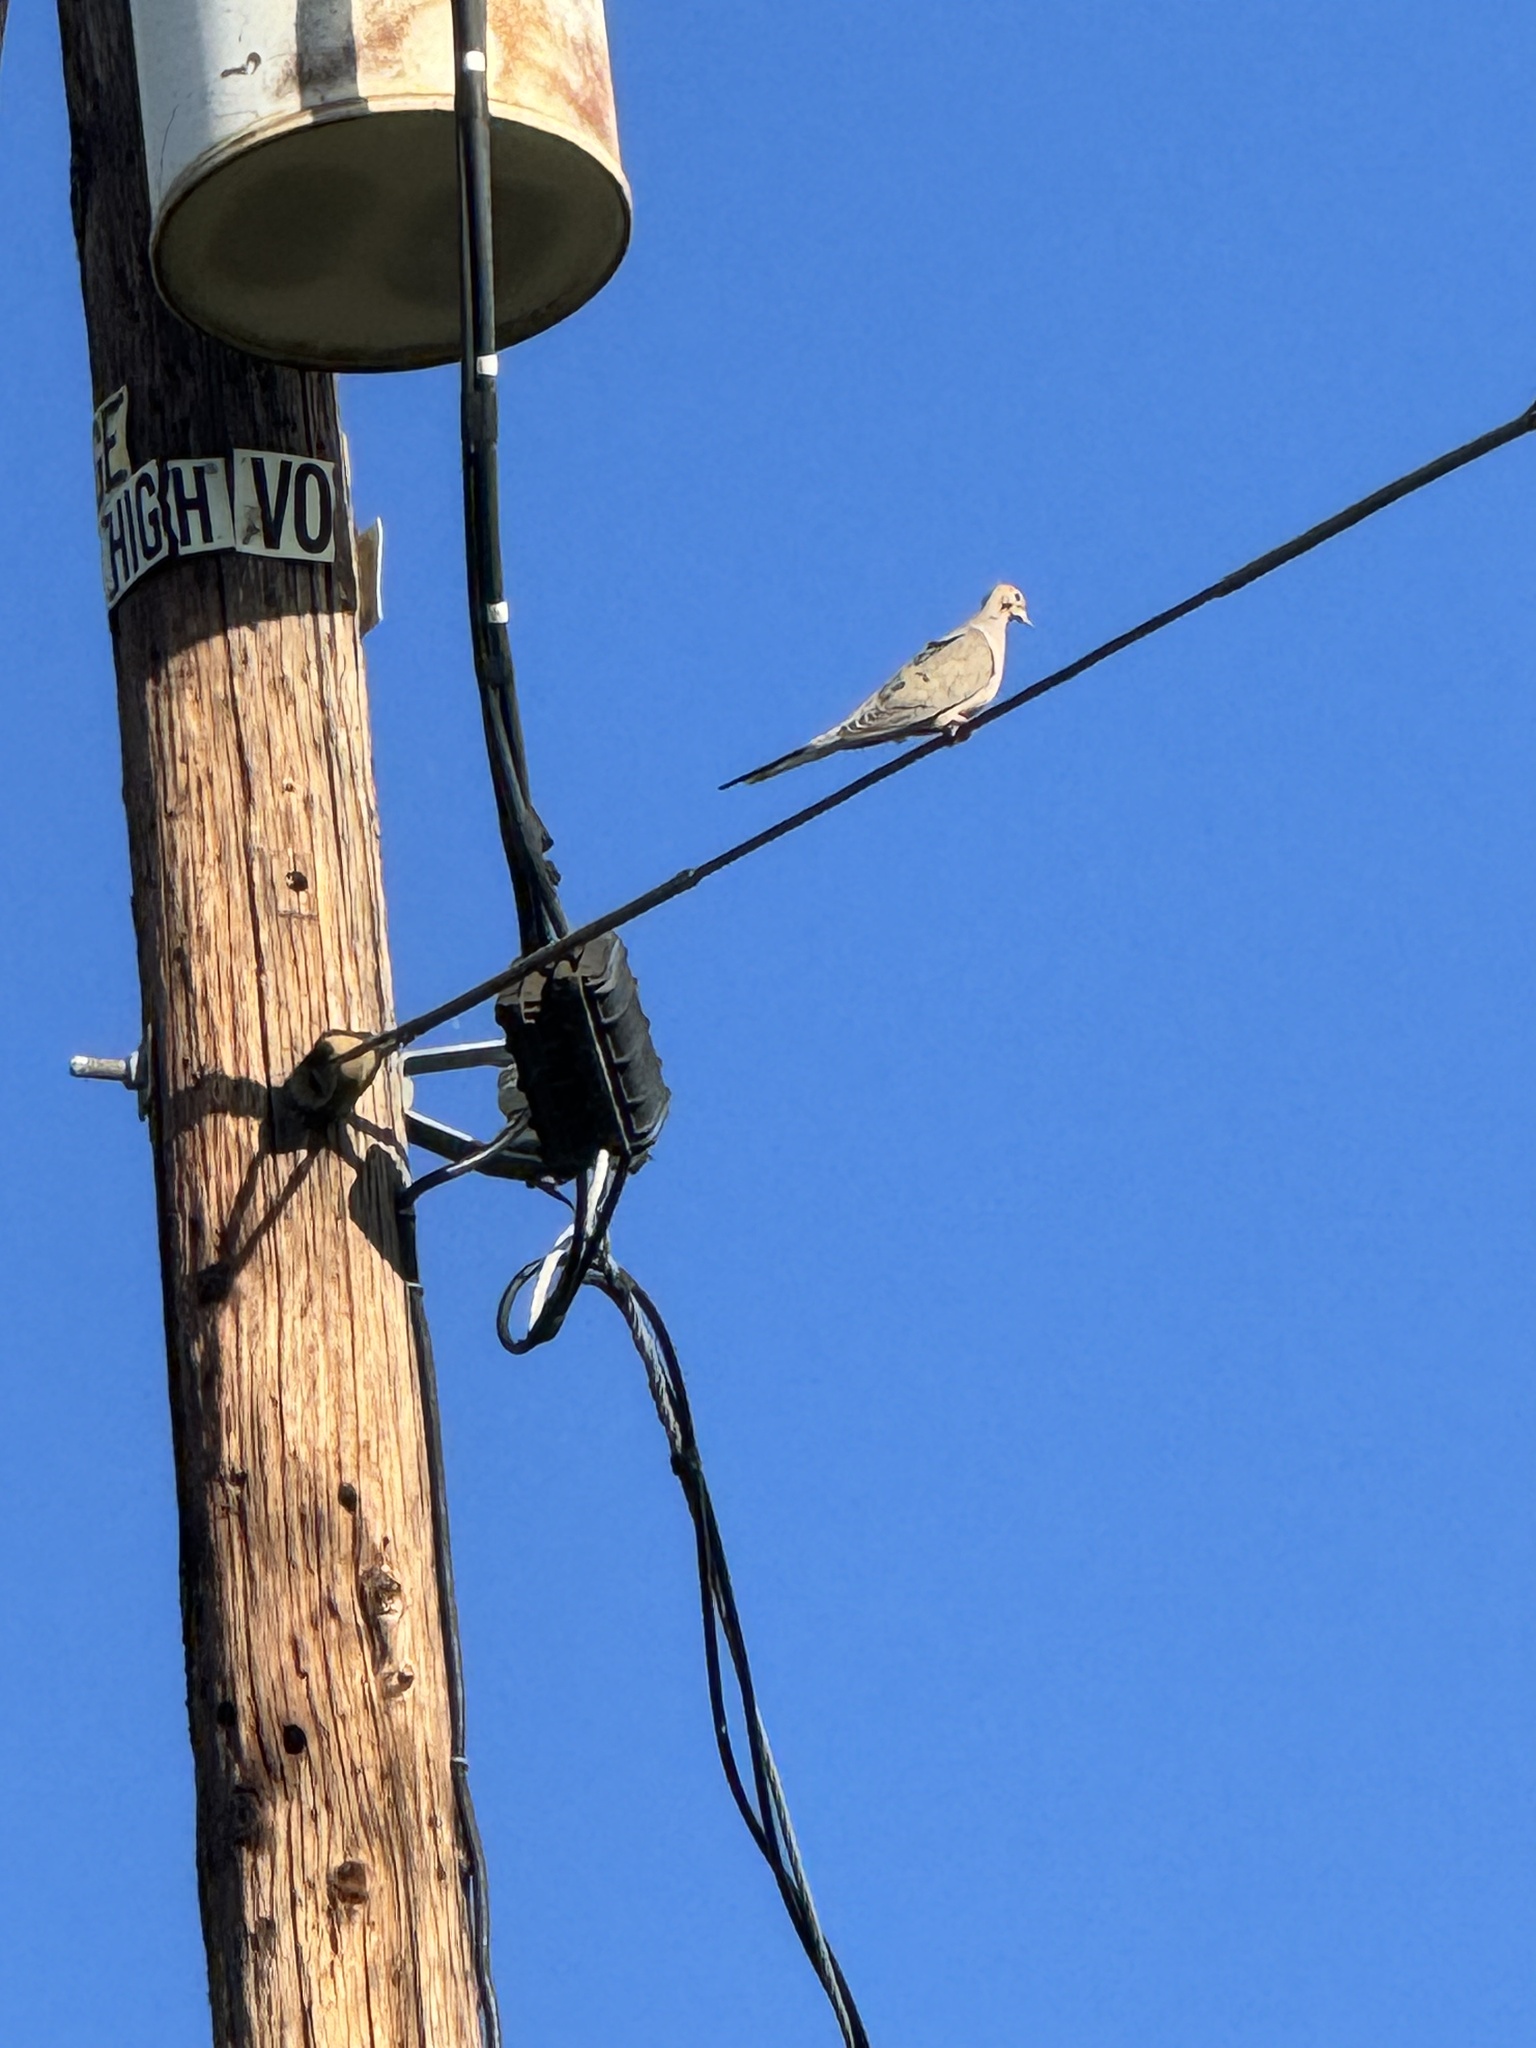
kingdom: Animalia
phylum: Chordata
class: Aves
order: Columbiformes
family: Columbidae
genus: Zenaida
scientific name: Zenaida macroura
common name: Mourning dove
